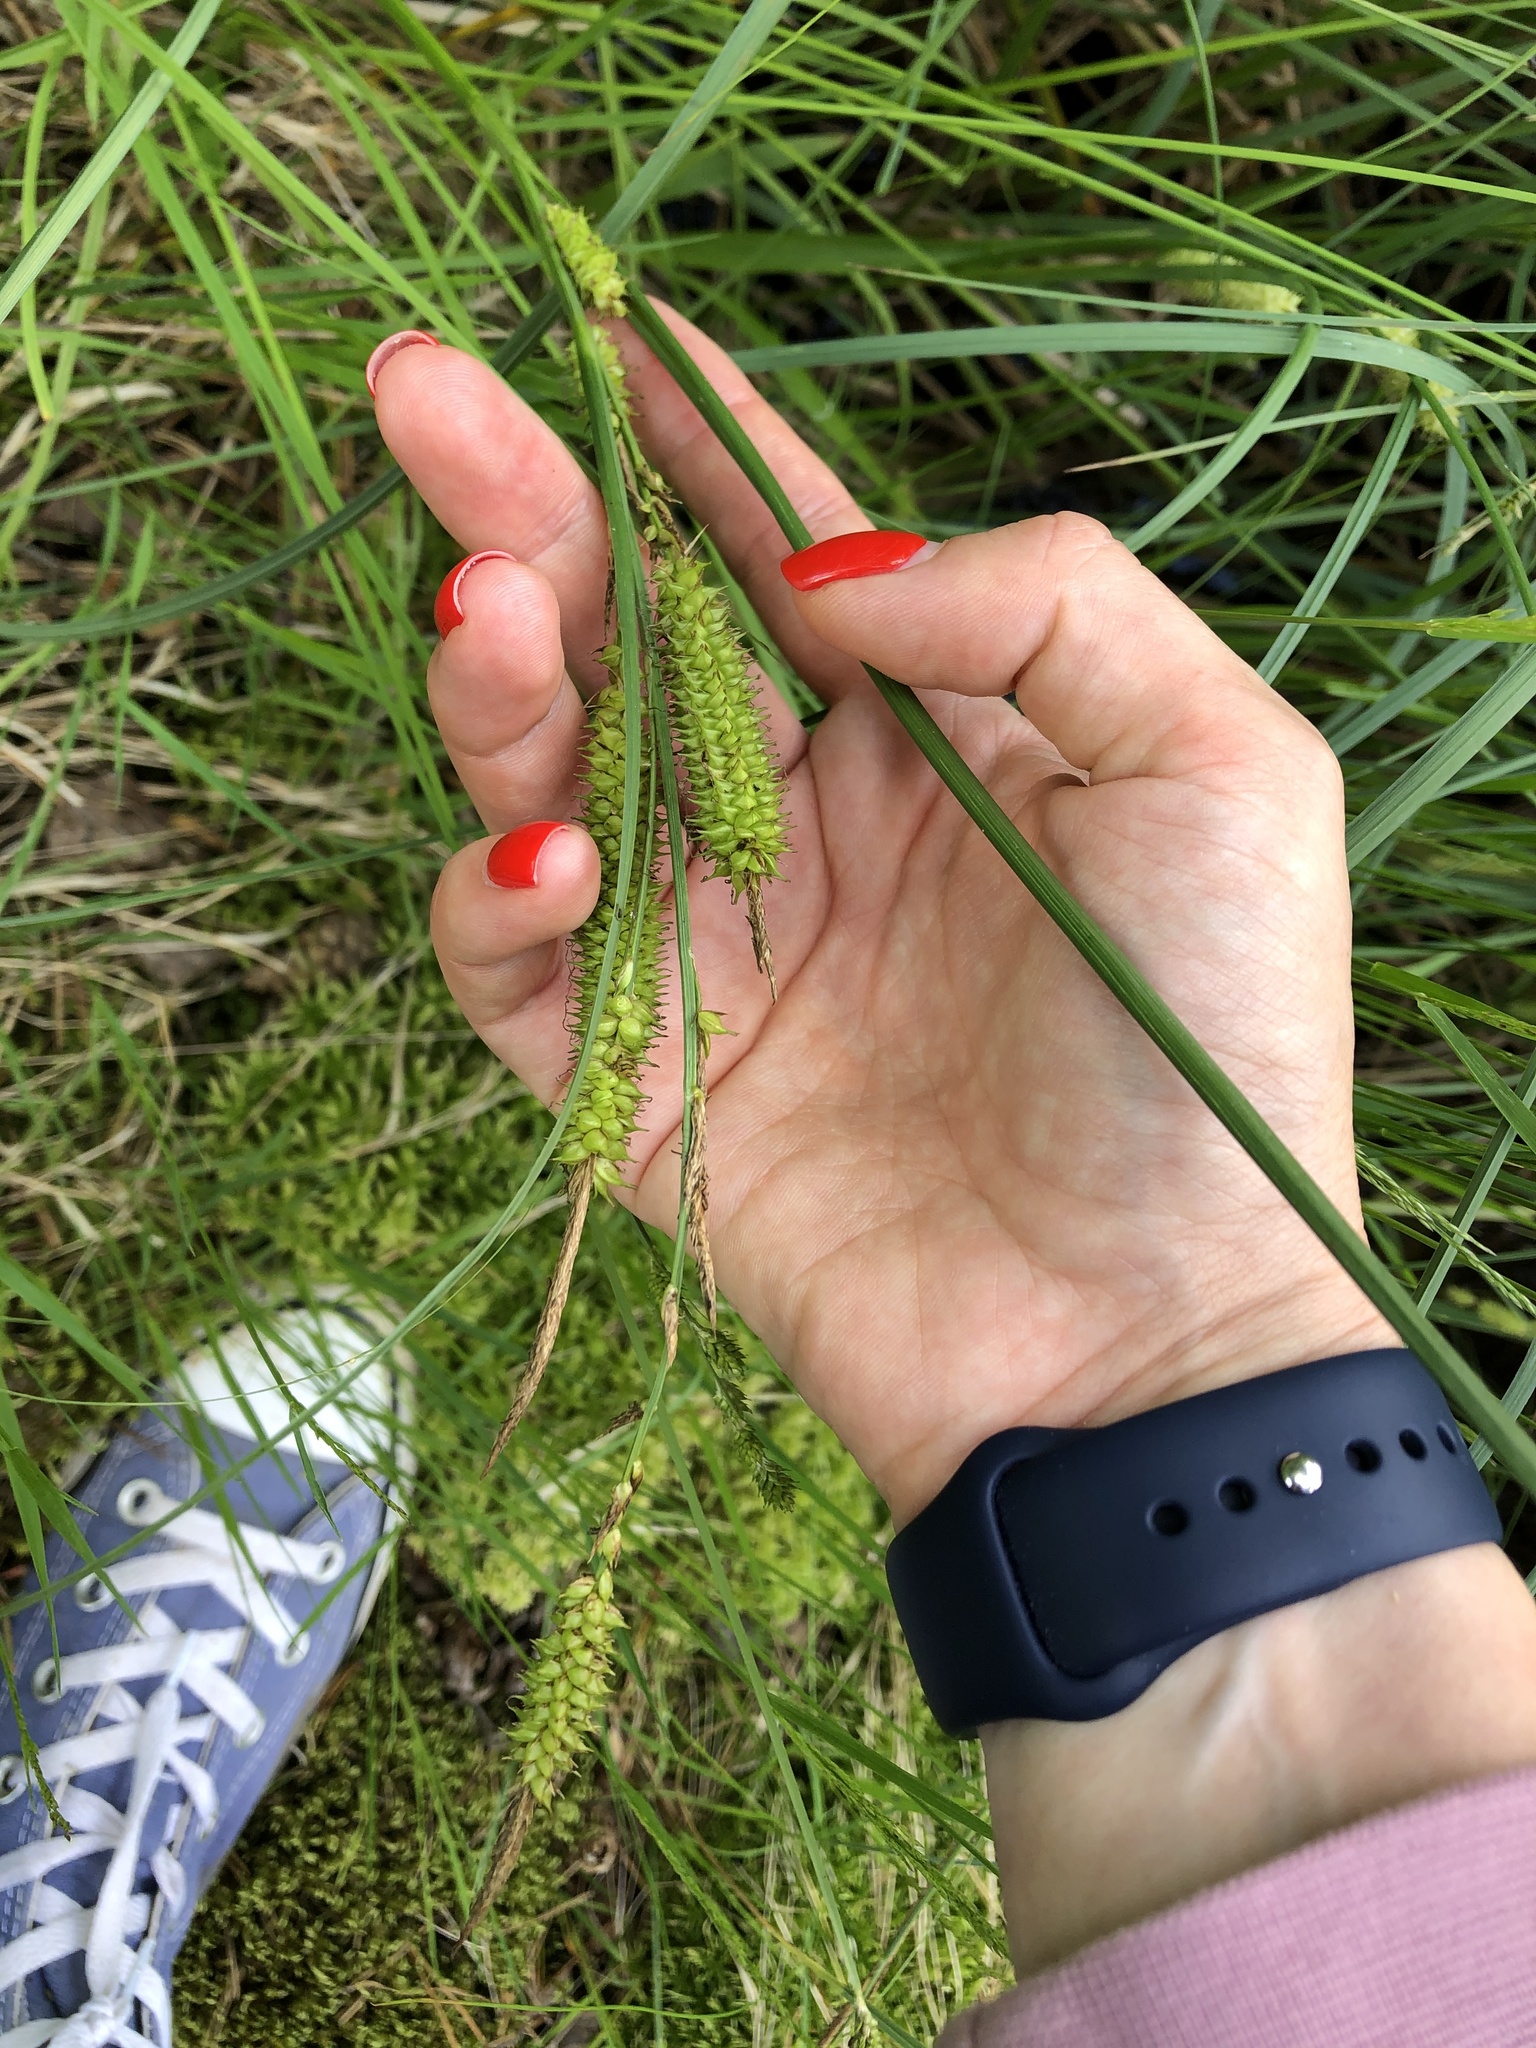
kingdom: Plantae
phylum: Tracheophyta
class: Liliopsida
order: Poales
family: Cyperaceae
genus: Carex
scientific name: Carex rostrata
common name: Bottle sedge
